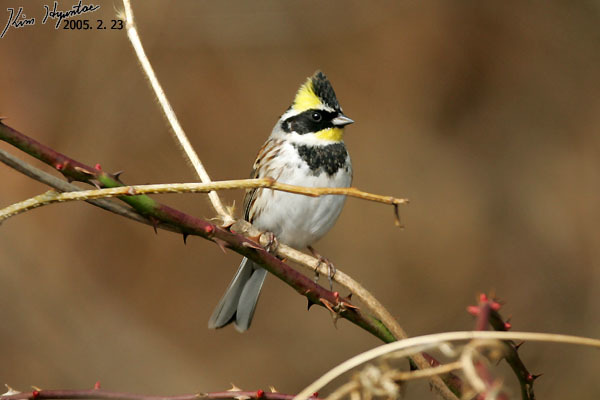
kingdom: Animalia
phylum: Chordata
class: Aves
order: Passeriformes
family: Emberizidae
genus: Emberiza
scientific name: Emberiza elegans
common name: Yellow-throated bunting
